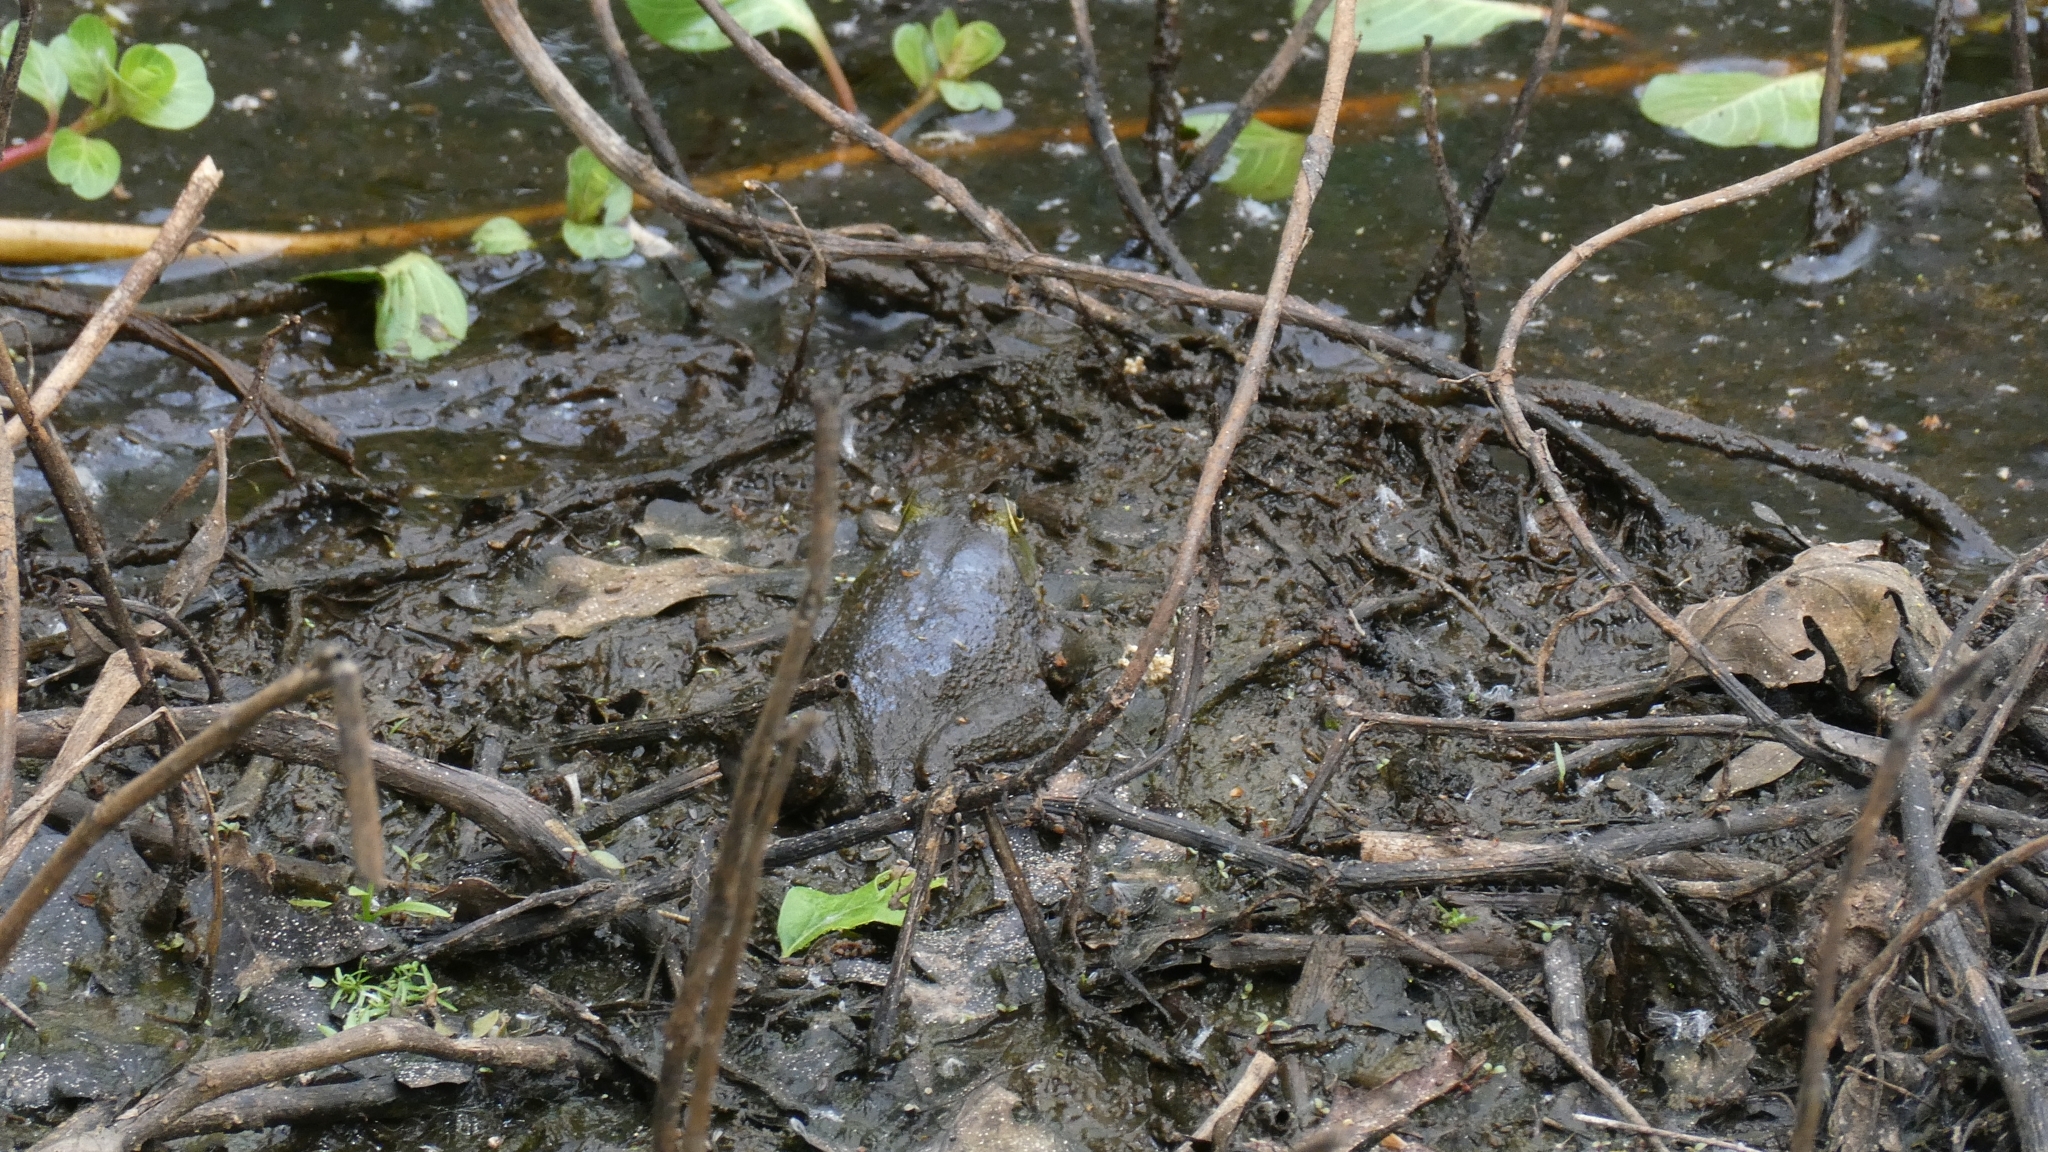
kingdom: Animalia
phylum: Chordata
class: Amphibia
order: Anura
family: Ranidae
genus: Lithobates
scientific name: Lithobates catesbeianus
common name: American bullfrog
